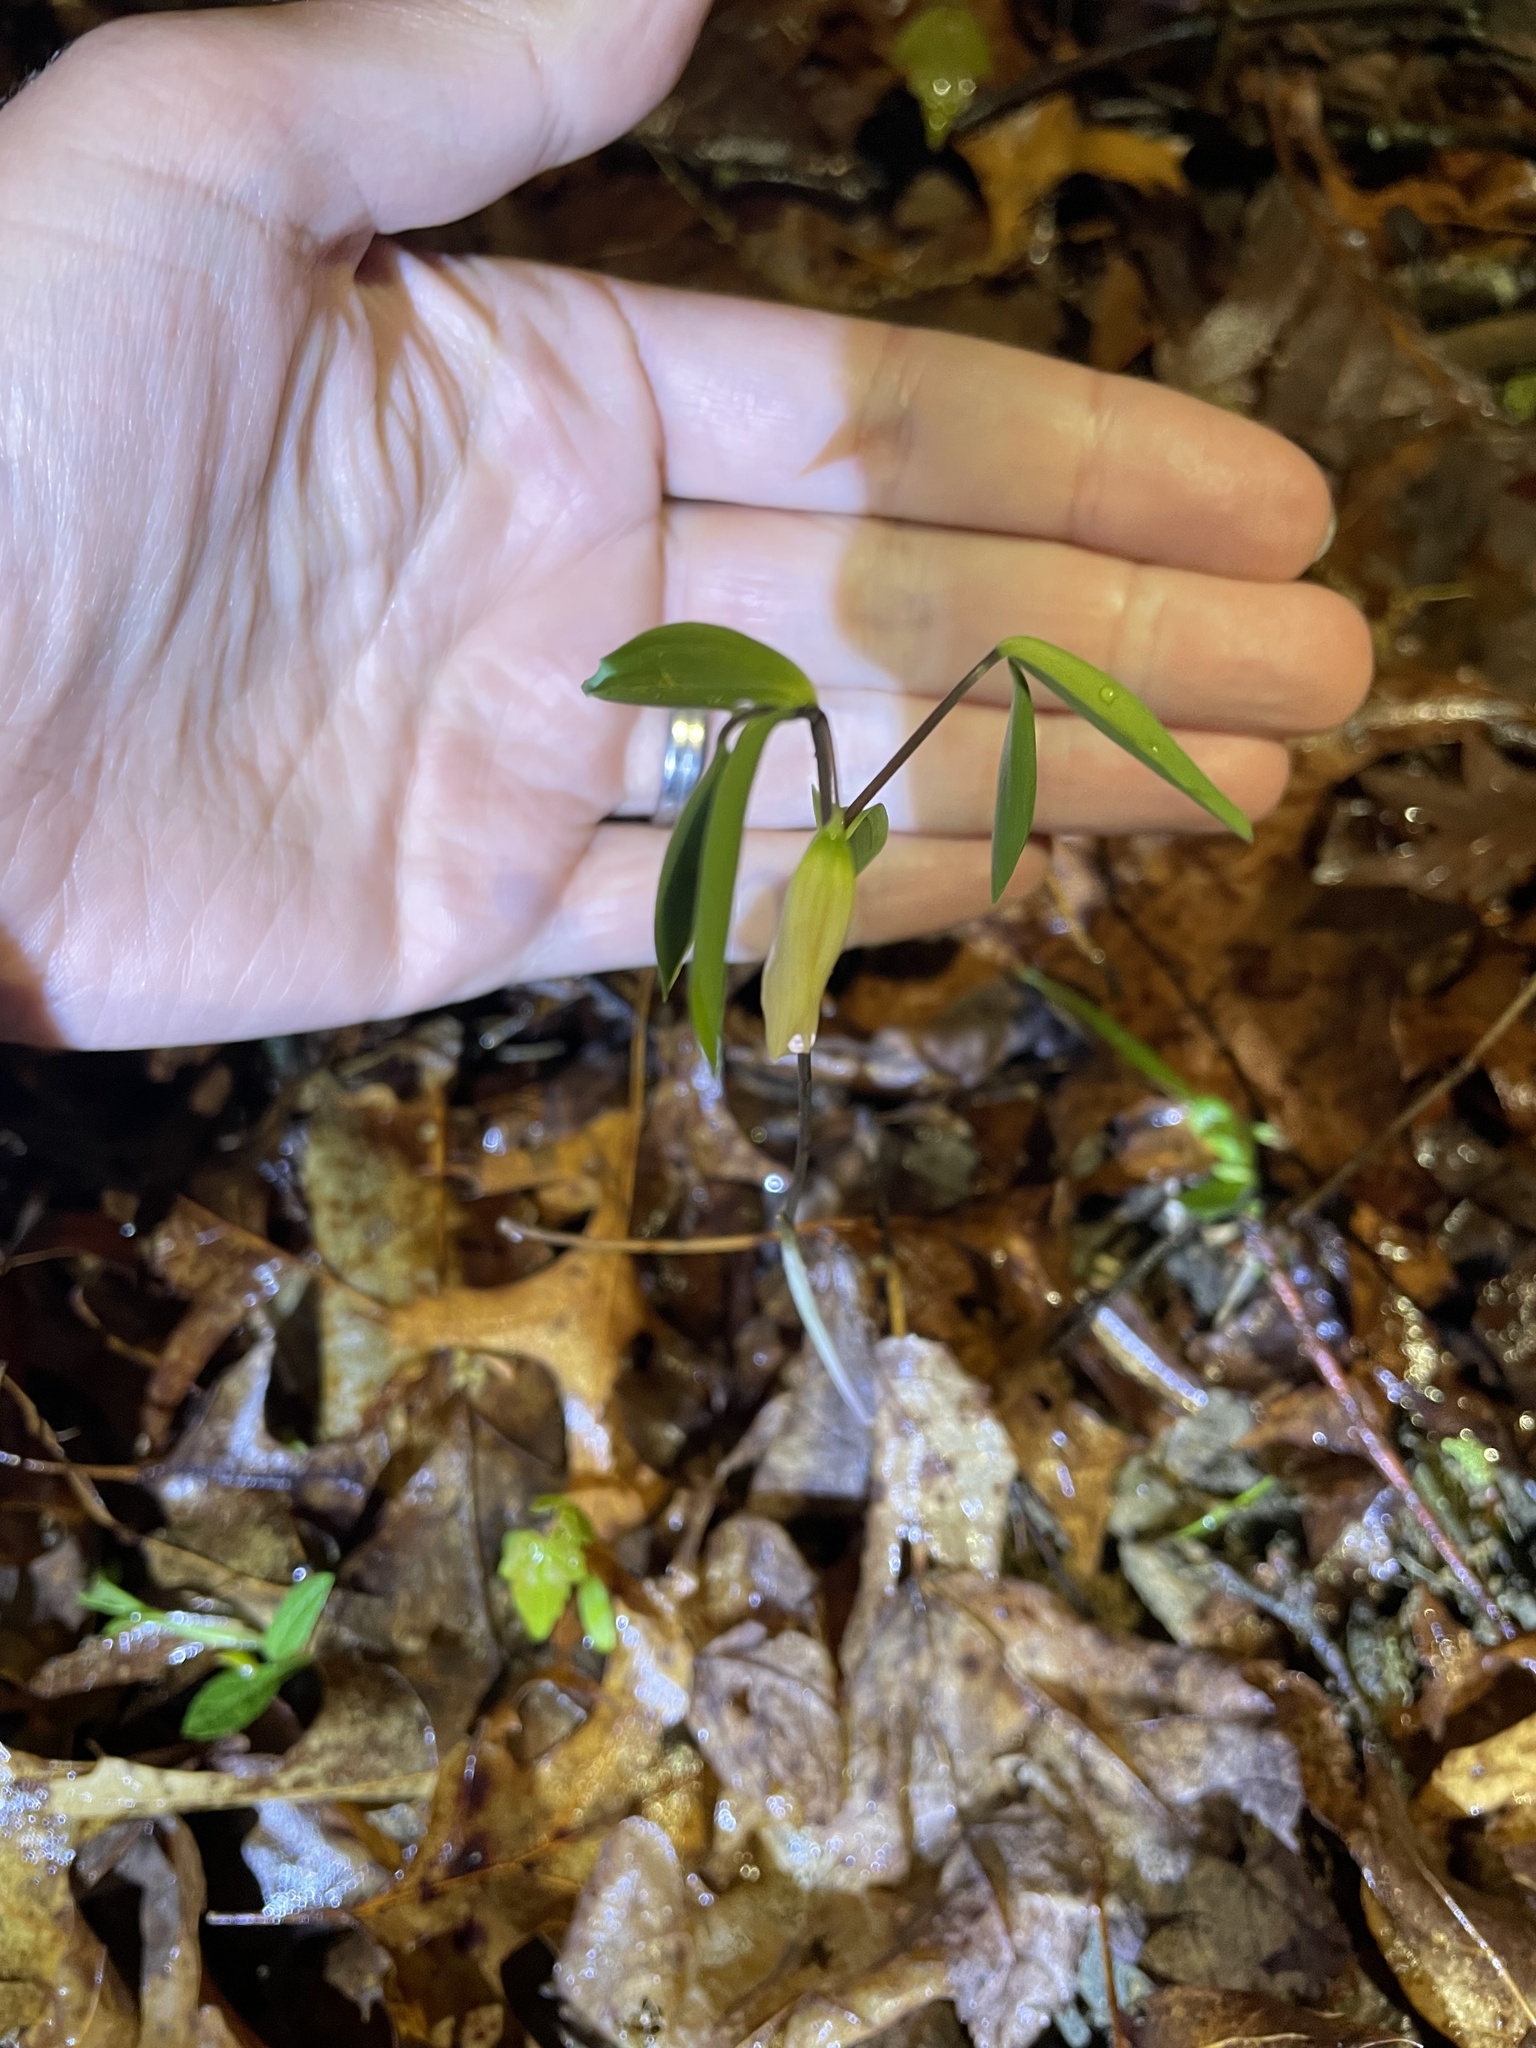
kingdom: Plantae
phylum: Tracheophyta
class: Liliopsida
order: Liliales
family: Colchicaceae
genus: Uvularia
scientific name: Uvularia sessilifolia
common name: Straw-lily
